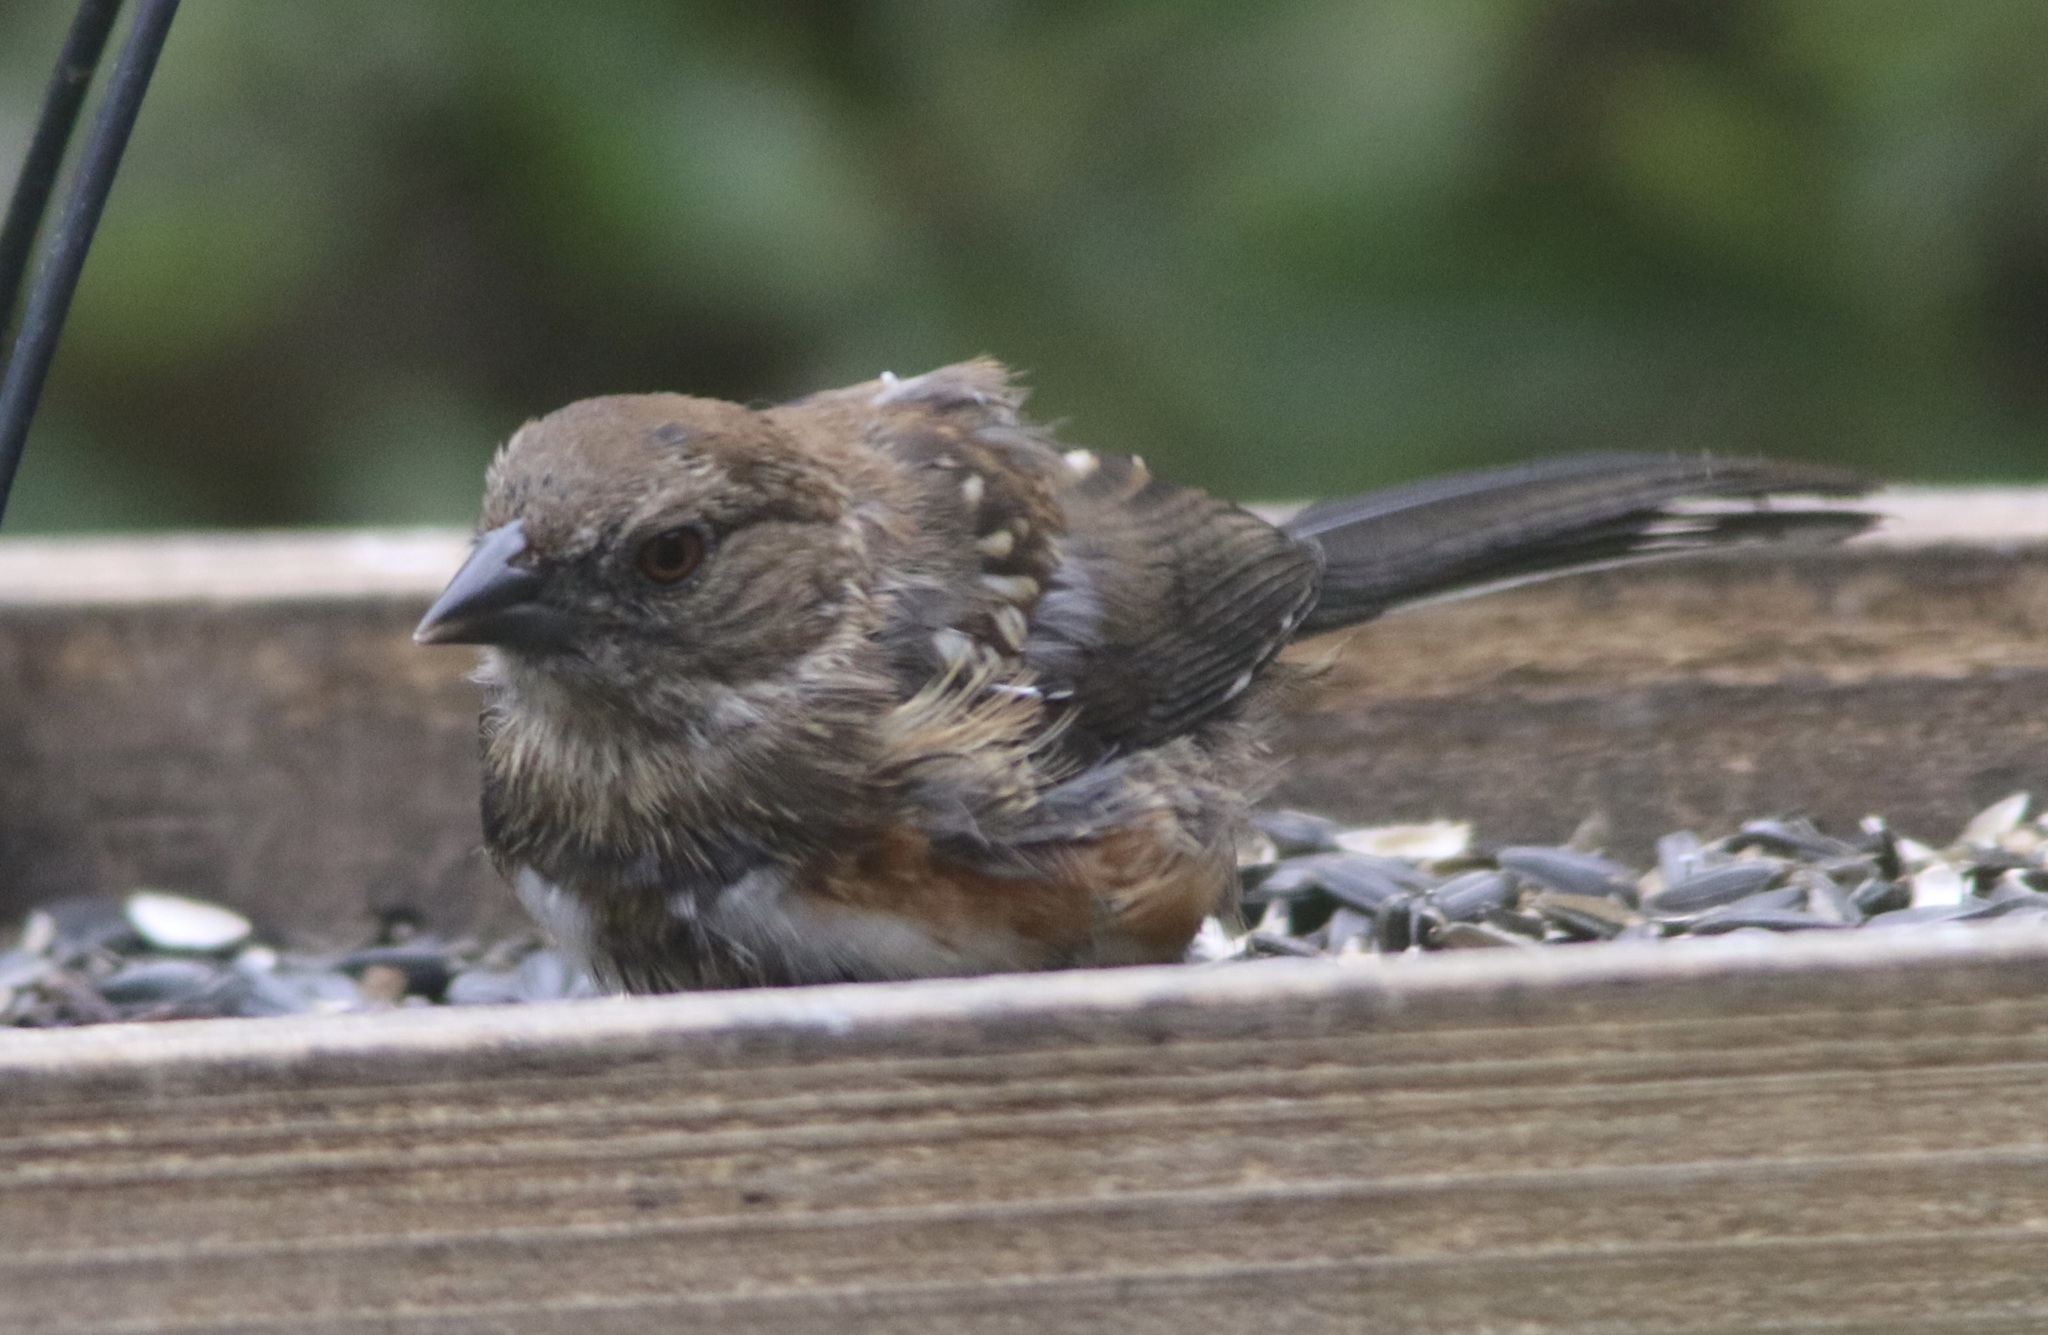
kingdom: Animalia
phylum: Chordata
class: Aves
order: Passeriformes
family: Passerellidae
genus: Pipilo
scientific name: Pipilo maculatus
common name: Spotted towhee
